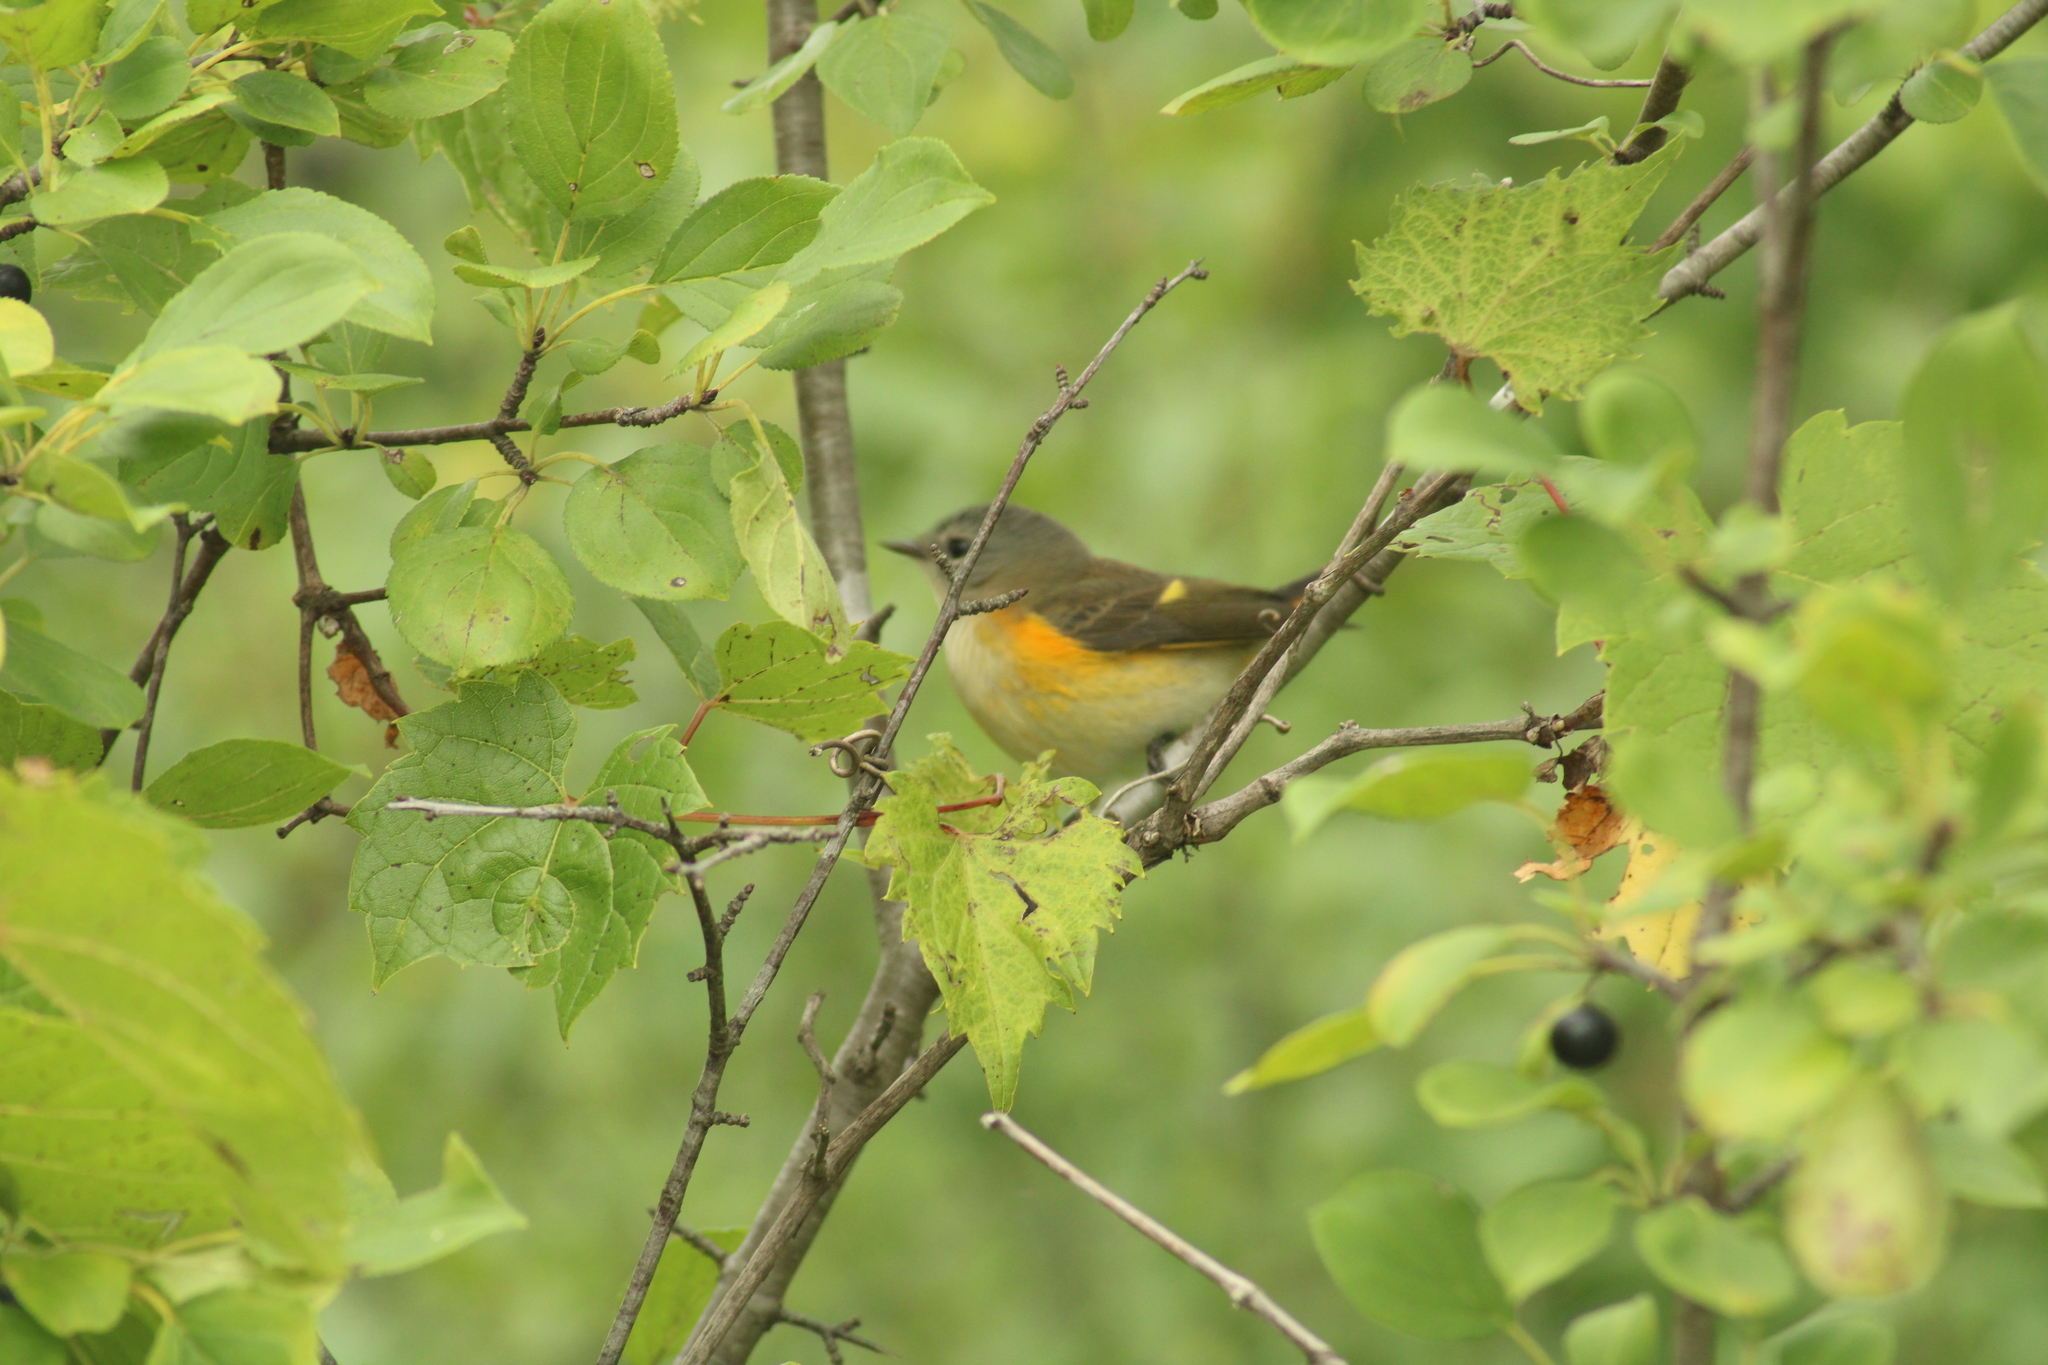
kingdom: Animalia
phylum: Chordata
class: Aves
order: Passeriformes
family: Parulidae
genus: Setophaga
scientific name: Setophaga ruticilla
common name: American redstart
